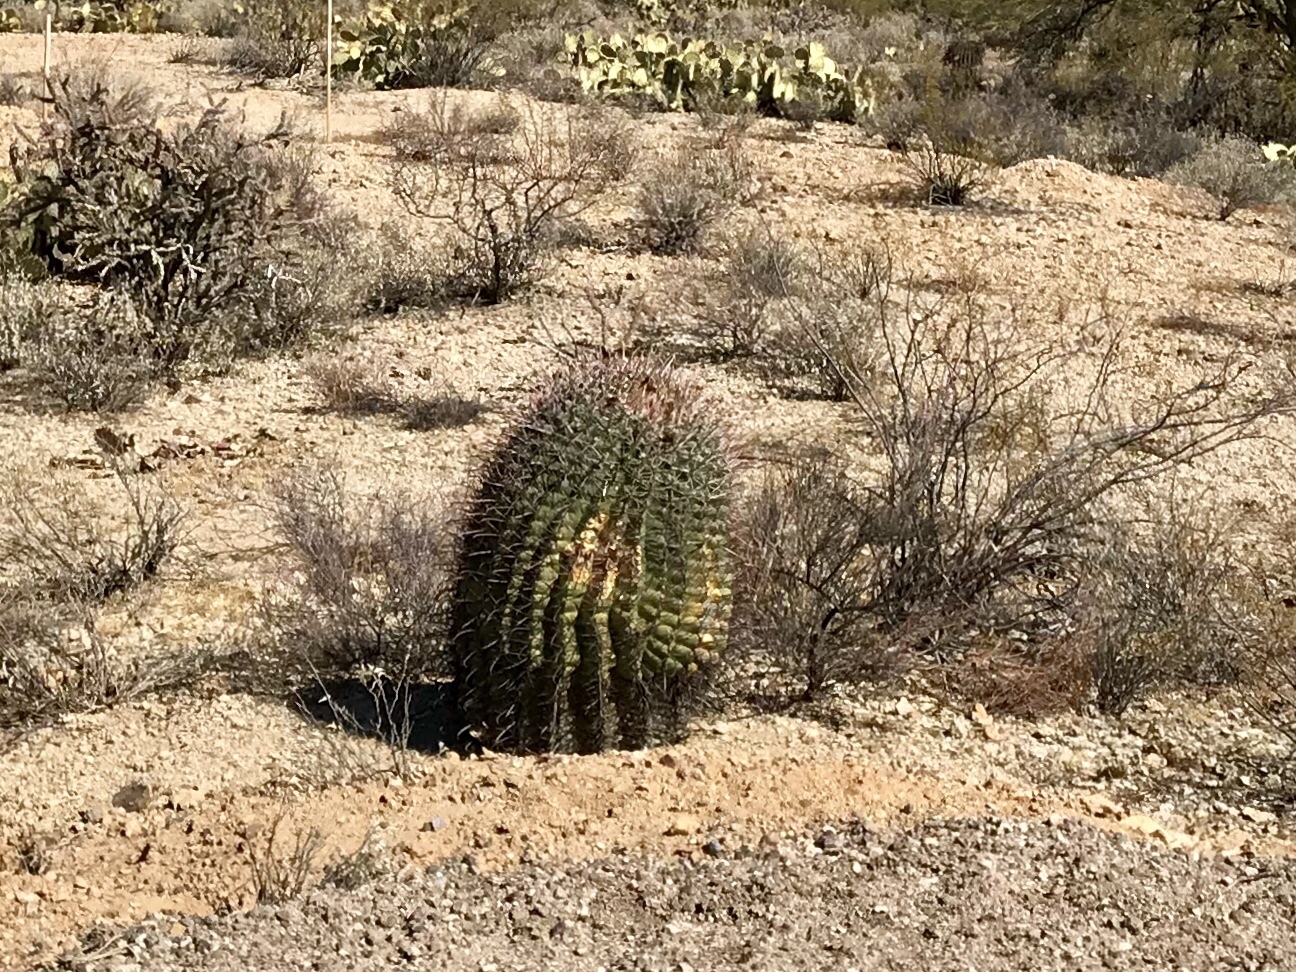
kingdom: Plantae
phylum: Tracheophyta
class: Magnoliopsida
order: Caryophyllales
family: Cactaceae
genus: Ferocactus
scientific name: Ferocactus wislizeni
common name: Candy barrel cactus
